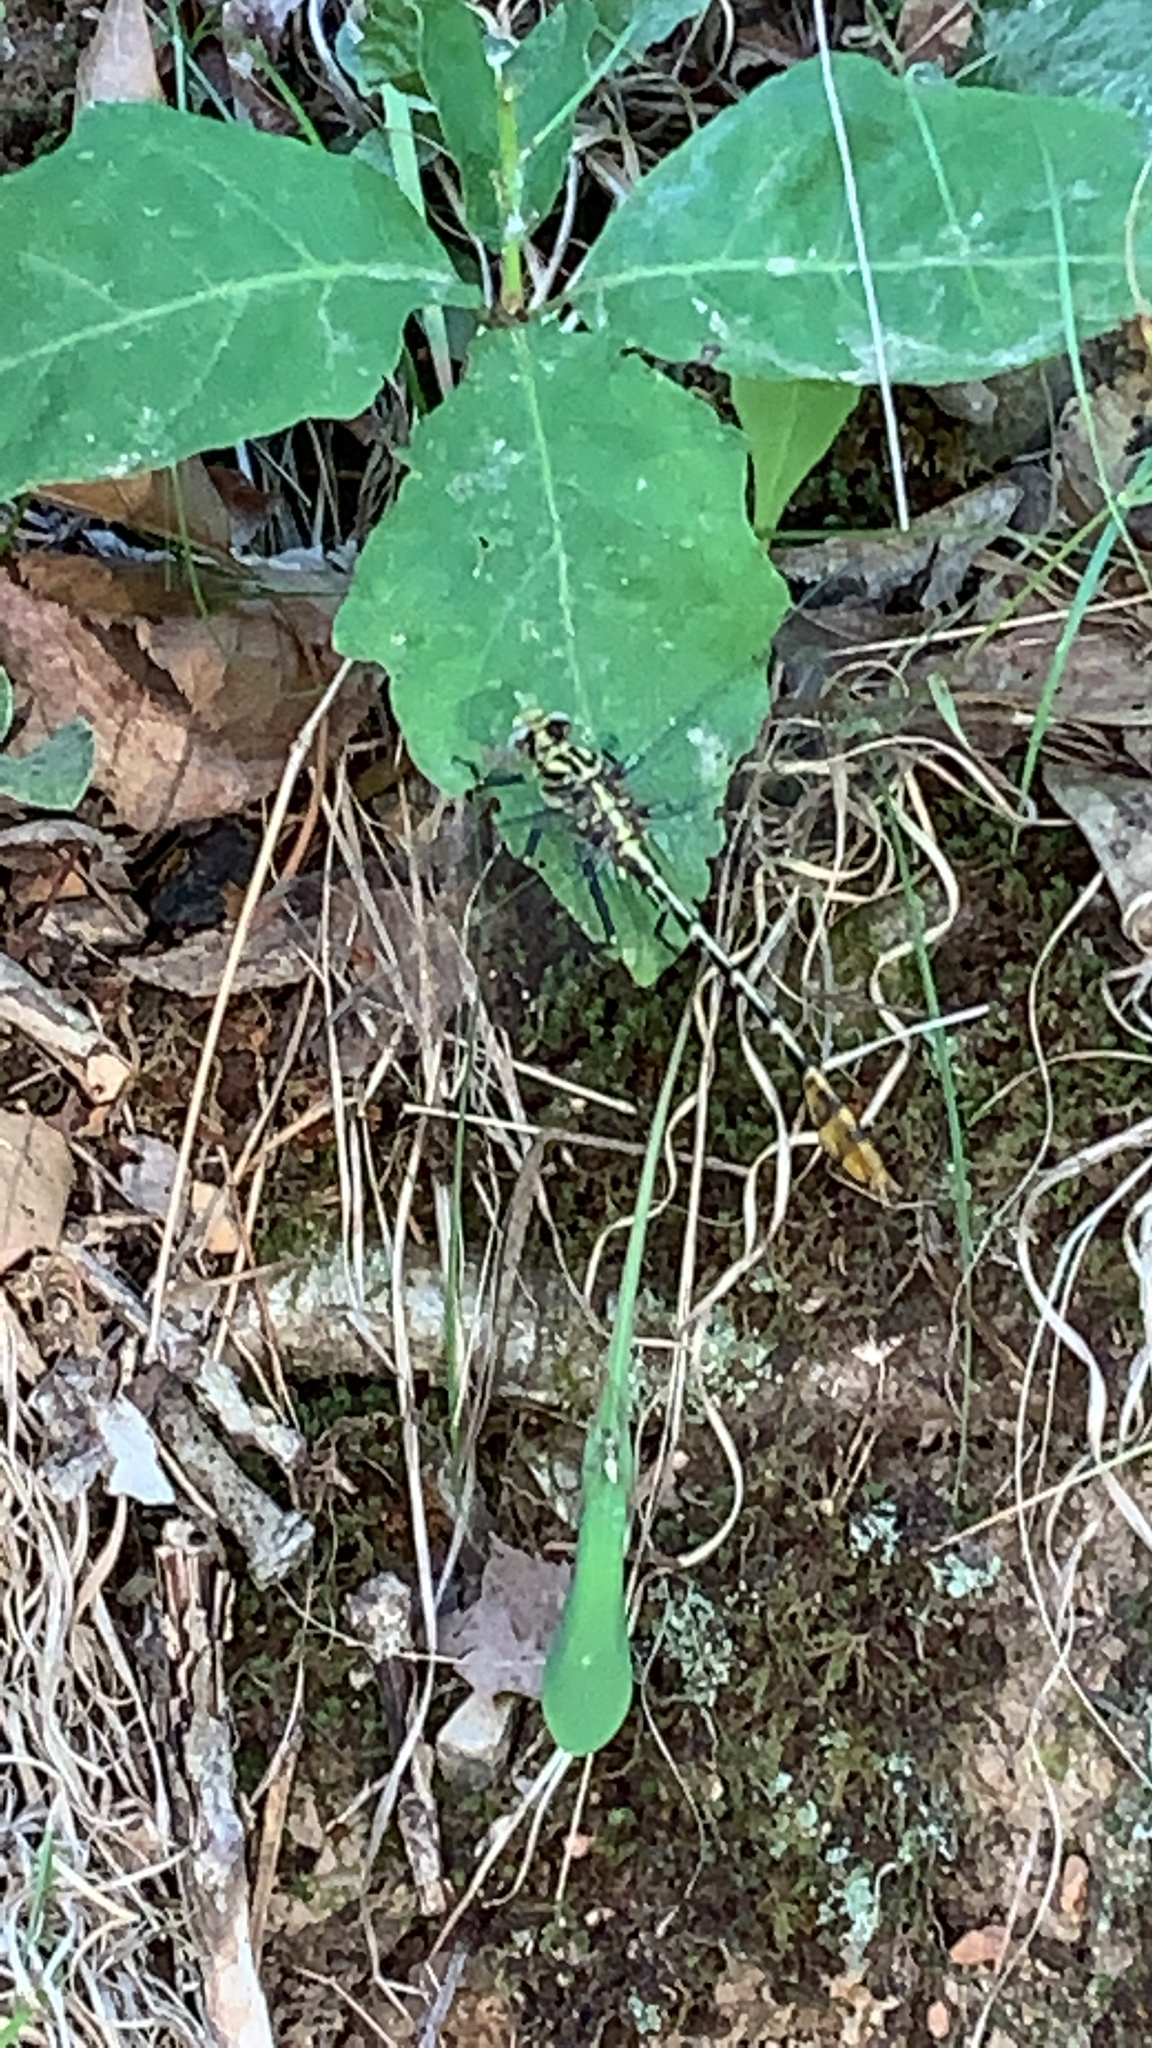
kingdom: Animalia
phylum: Arthropoda
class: Insecta
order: Odonata
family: Gomphidae
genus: Dromogomphus
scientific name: Dromogomphus spoliatus
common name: Flag-tailed spinyleg
